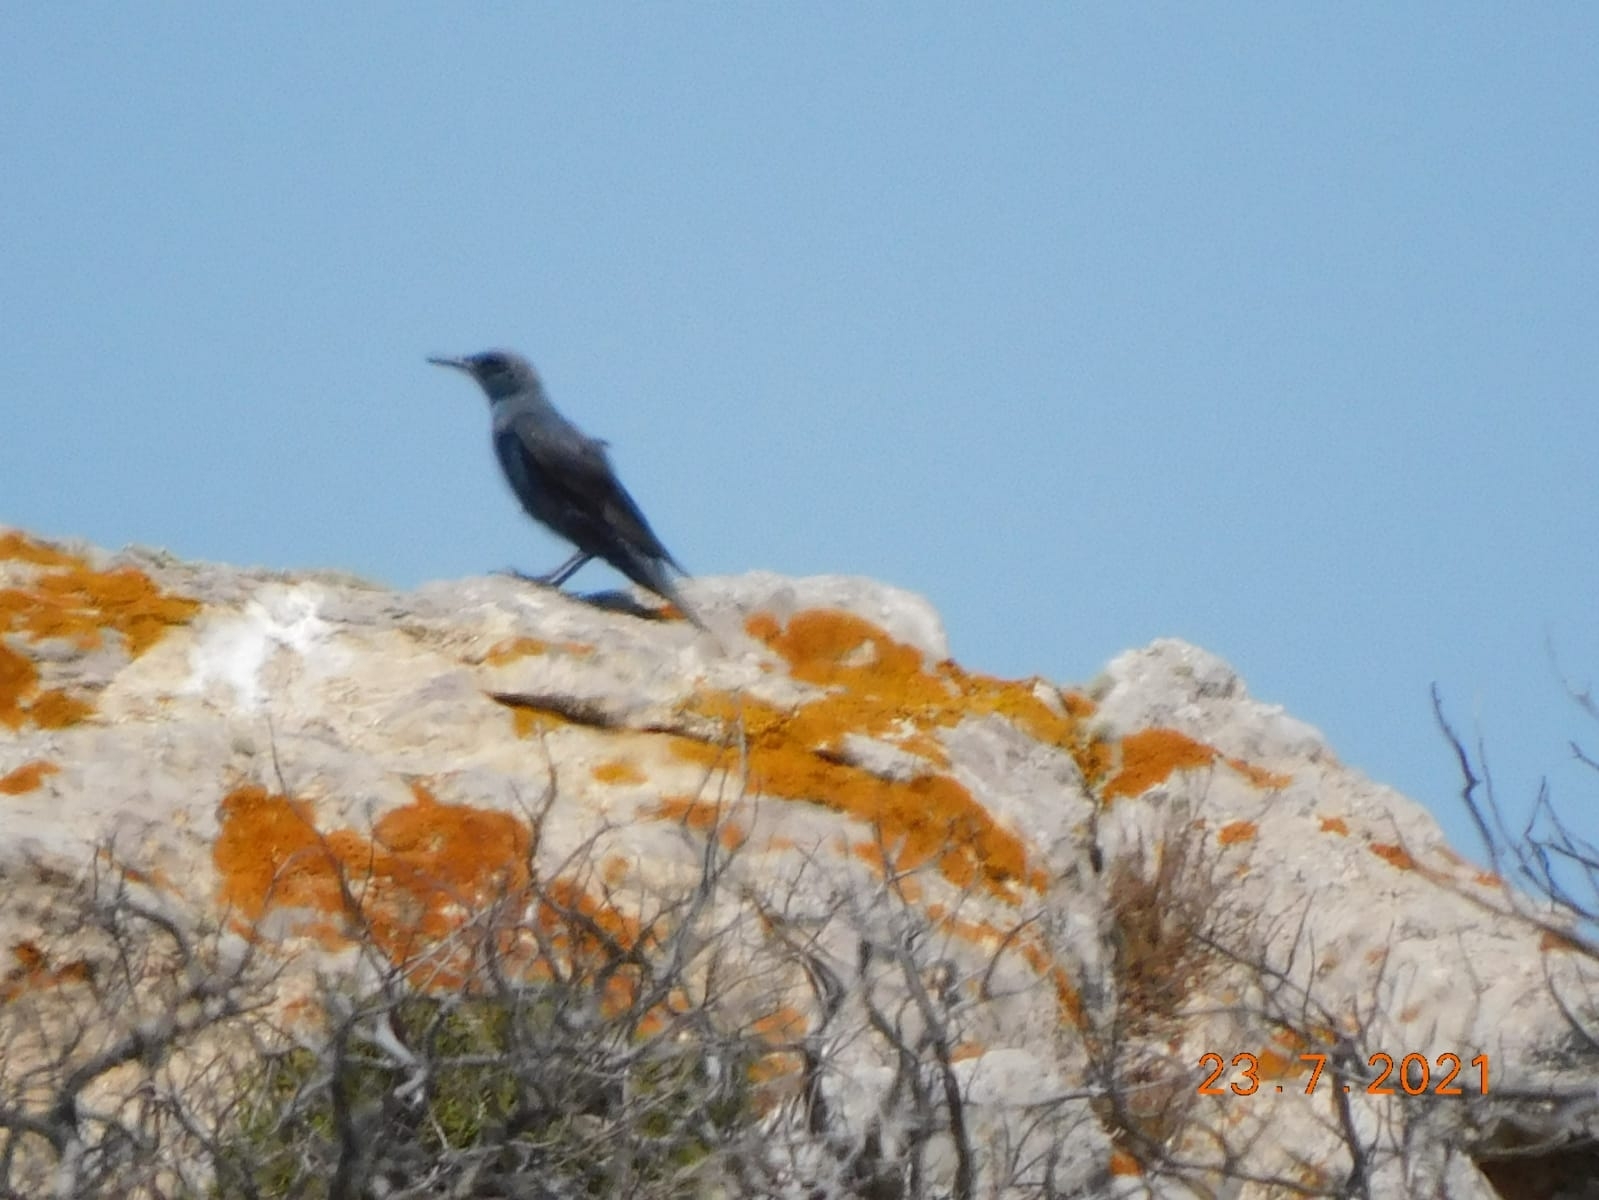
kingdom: Animalia
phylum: Chordata
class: Aves
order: Passeriformes
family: Muscicapidae
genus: Monticola
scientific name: Monticola solitarius
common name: Blue rock thrush
